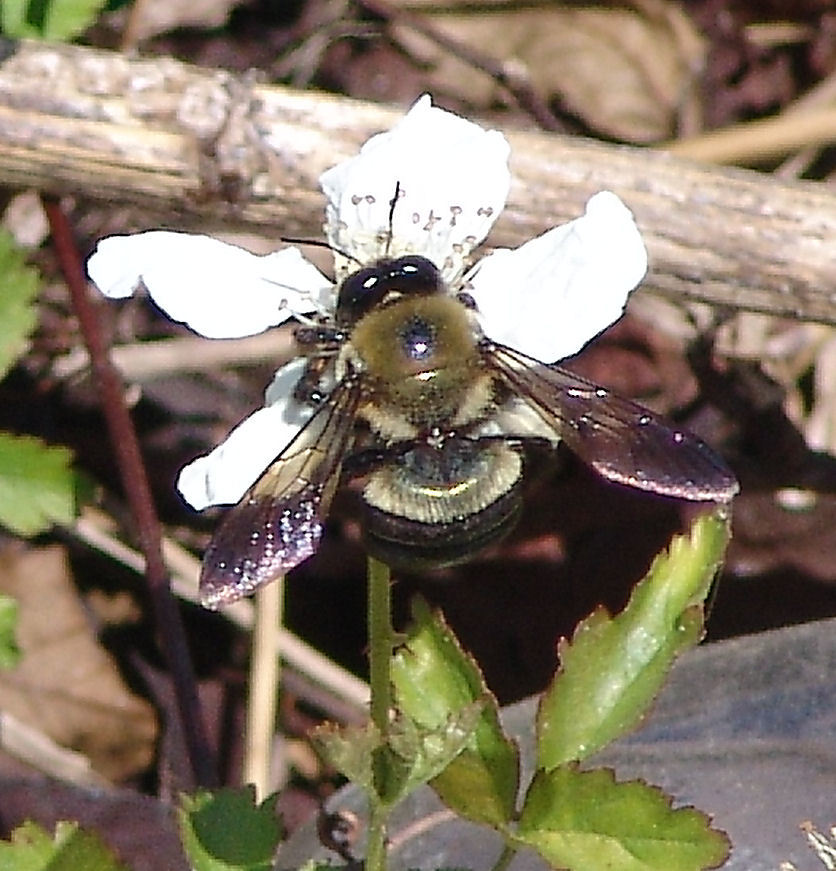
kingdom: Animalia
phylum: Arthropoda
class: Insecta
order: Hymenoptera
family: Apidae
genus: Xylocopa
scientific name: Xylocopa virginica
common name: Carpenter bee
